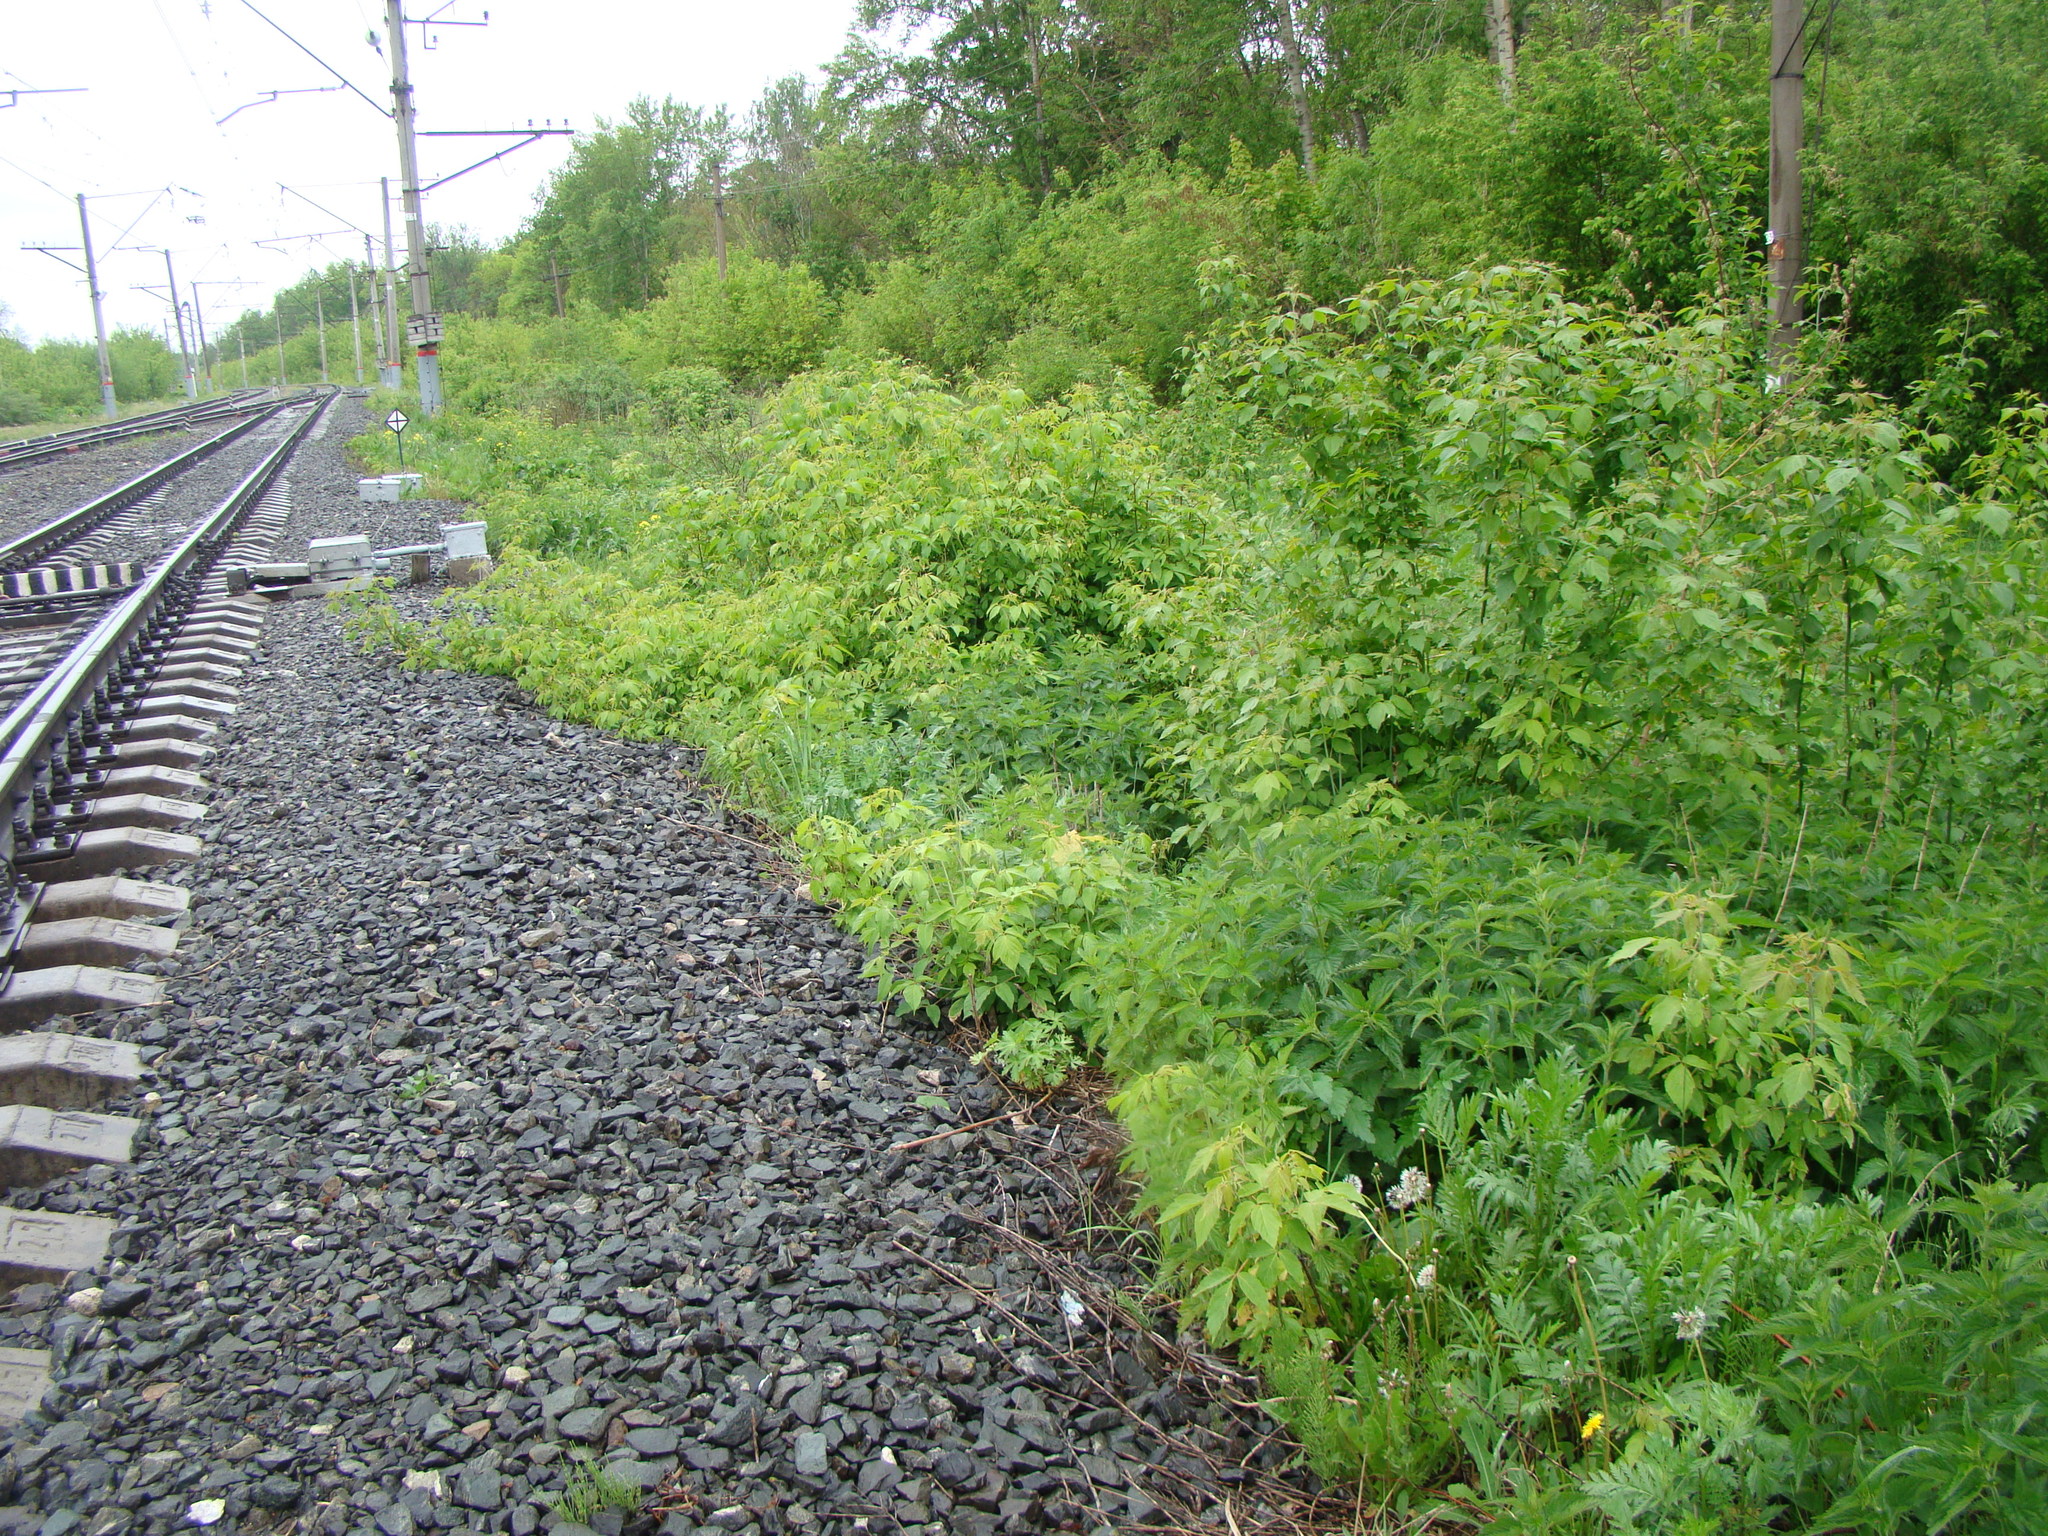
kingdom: Plantae
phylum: Tracheophyta
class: Magnoliopsida
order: Sapindales
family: Sapindaceae
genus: Acer
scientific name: Acer negundo
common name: Ashleaf maple
